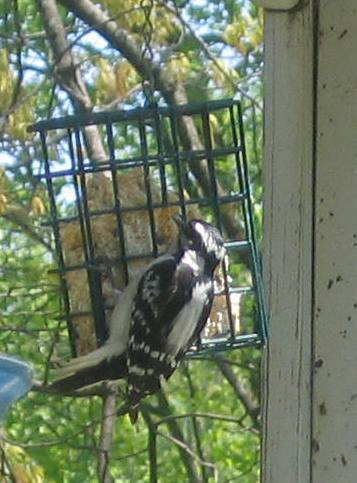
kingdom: Animalia
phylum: Chordata
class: Aves
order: Piciformes
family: Picidae
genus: Dryobates
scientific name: Dryobates pubescens
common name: Downy woodpecker
